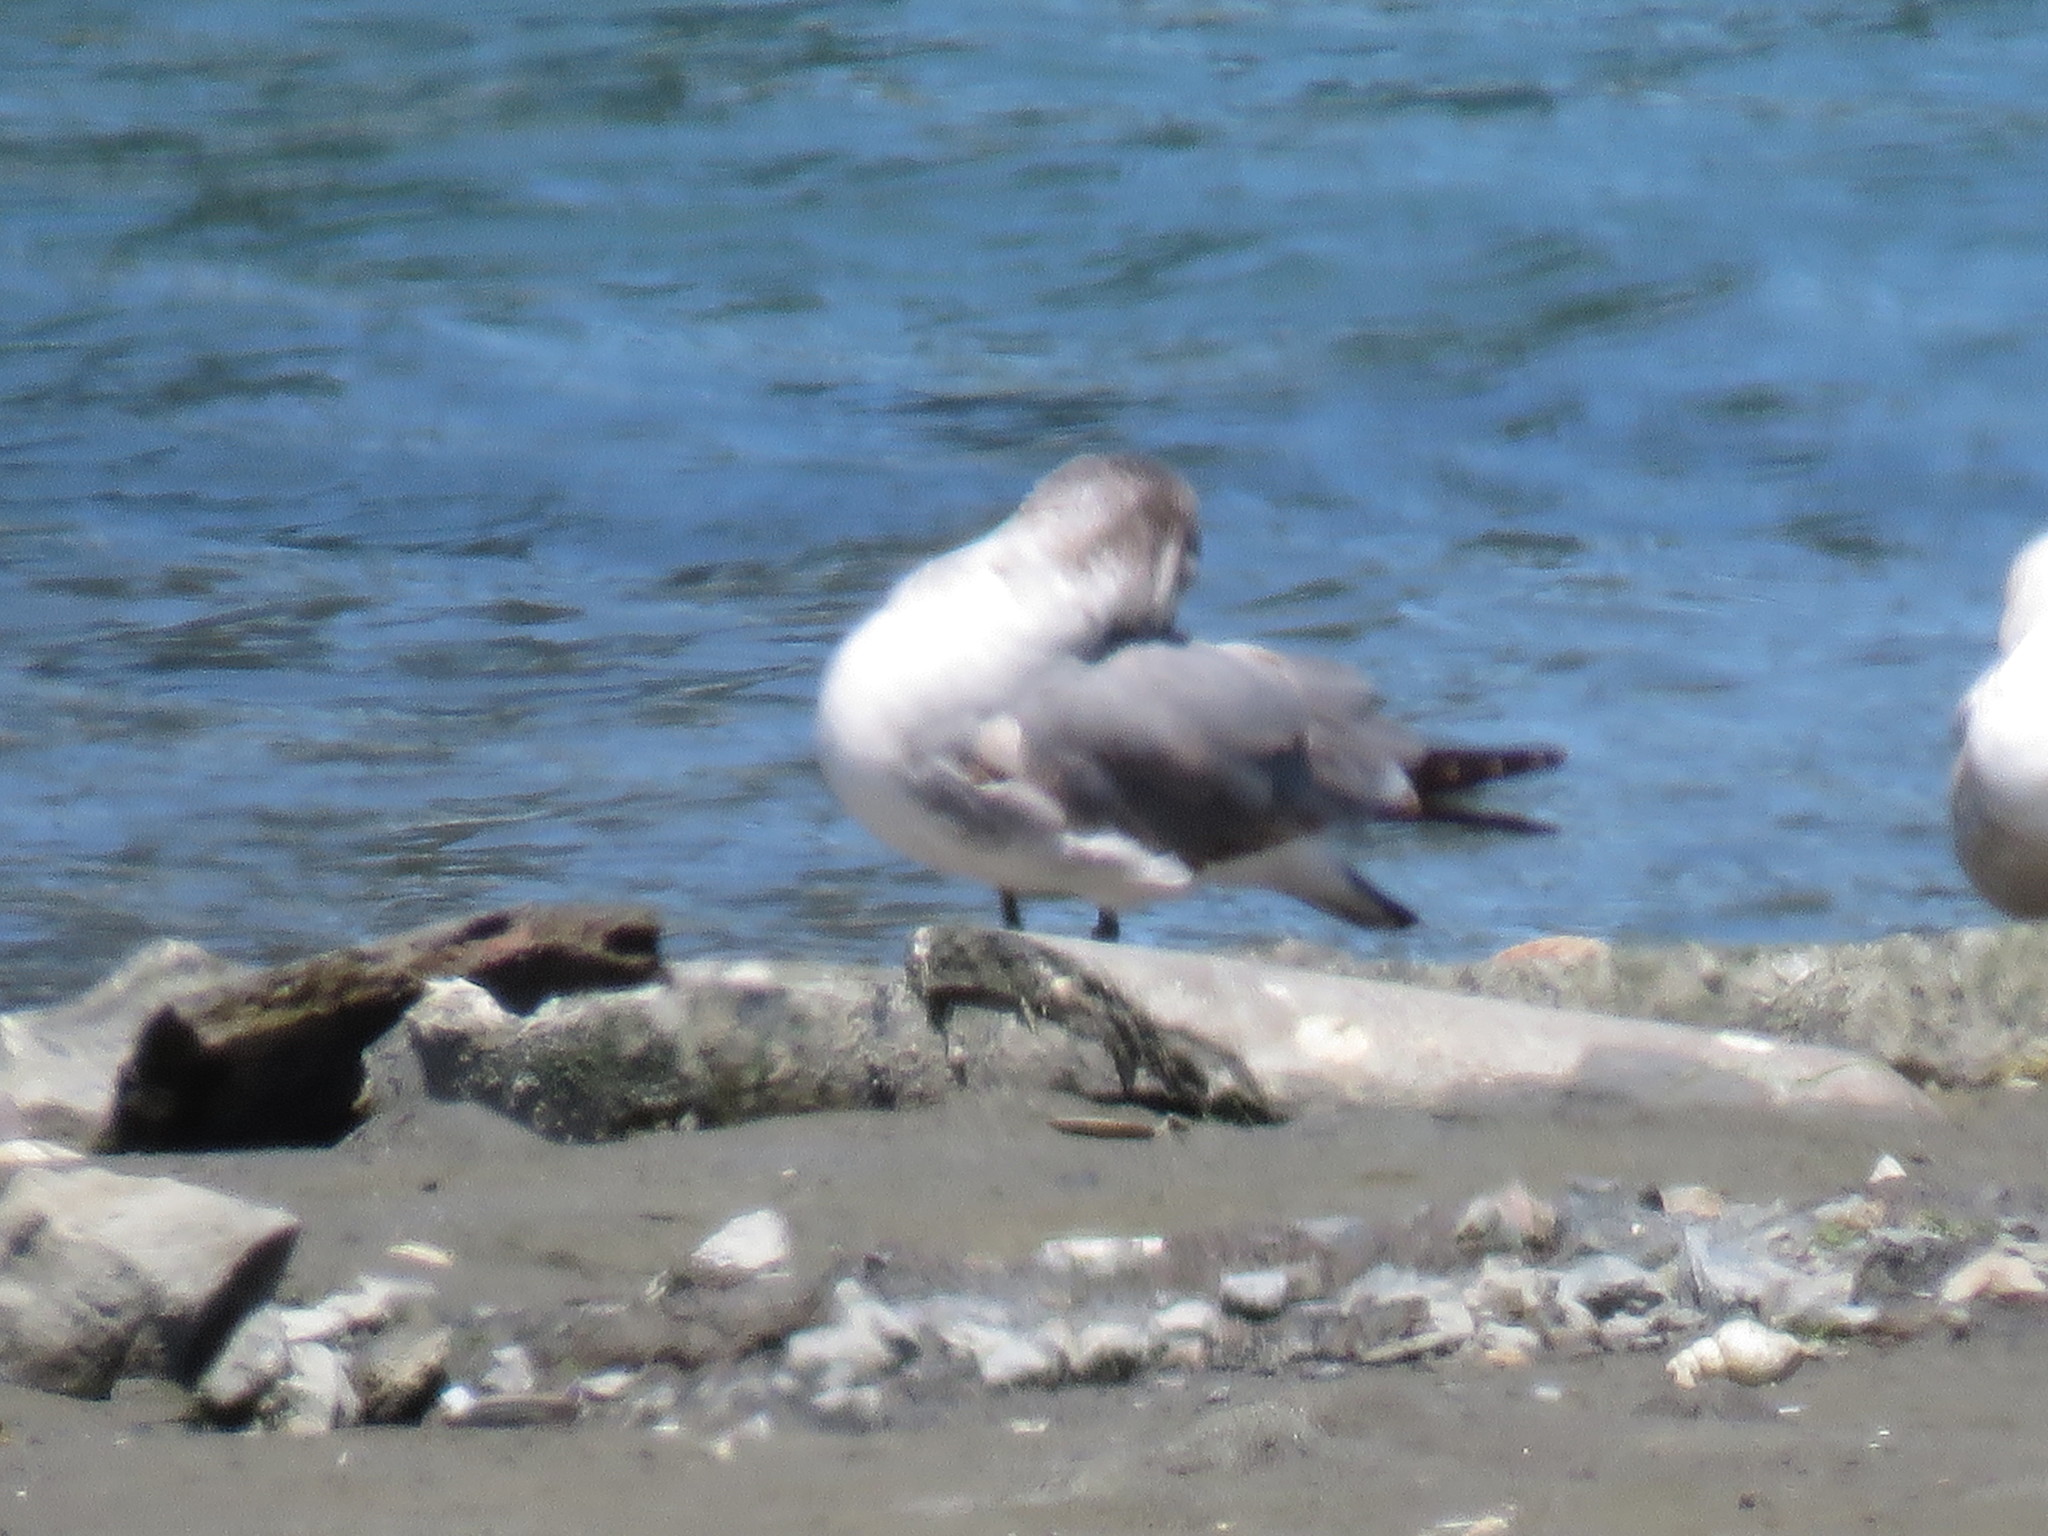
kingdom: Animalia
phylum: Chordata
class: Aves
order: Charadriiformes
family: Laridae
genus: Leucophaeus
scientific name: Leucophaeus atricilla
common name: Laughing gull
